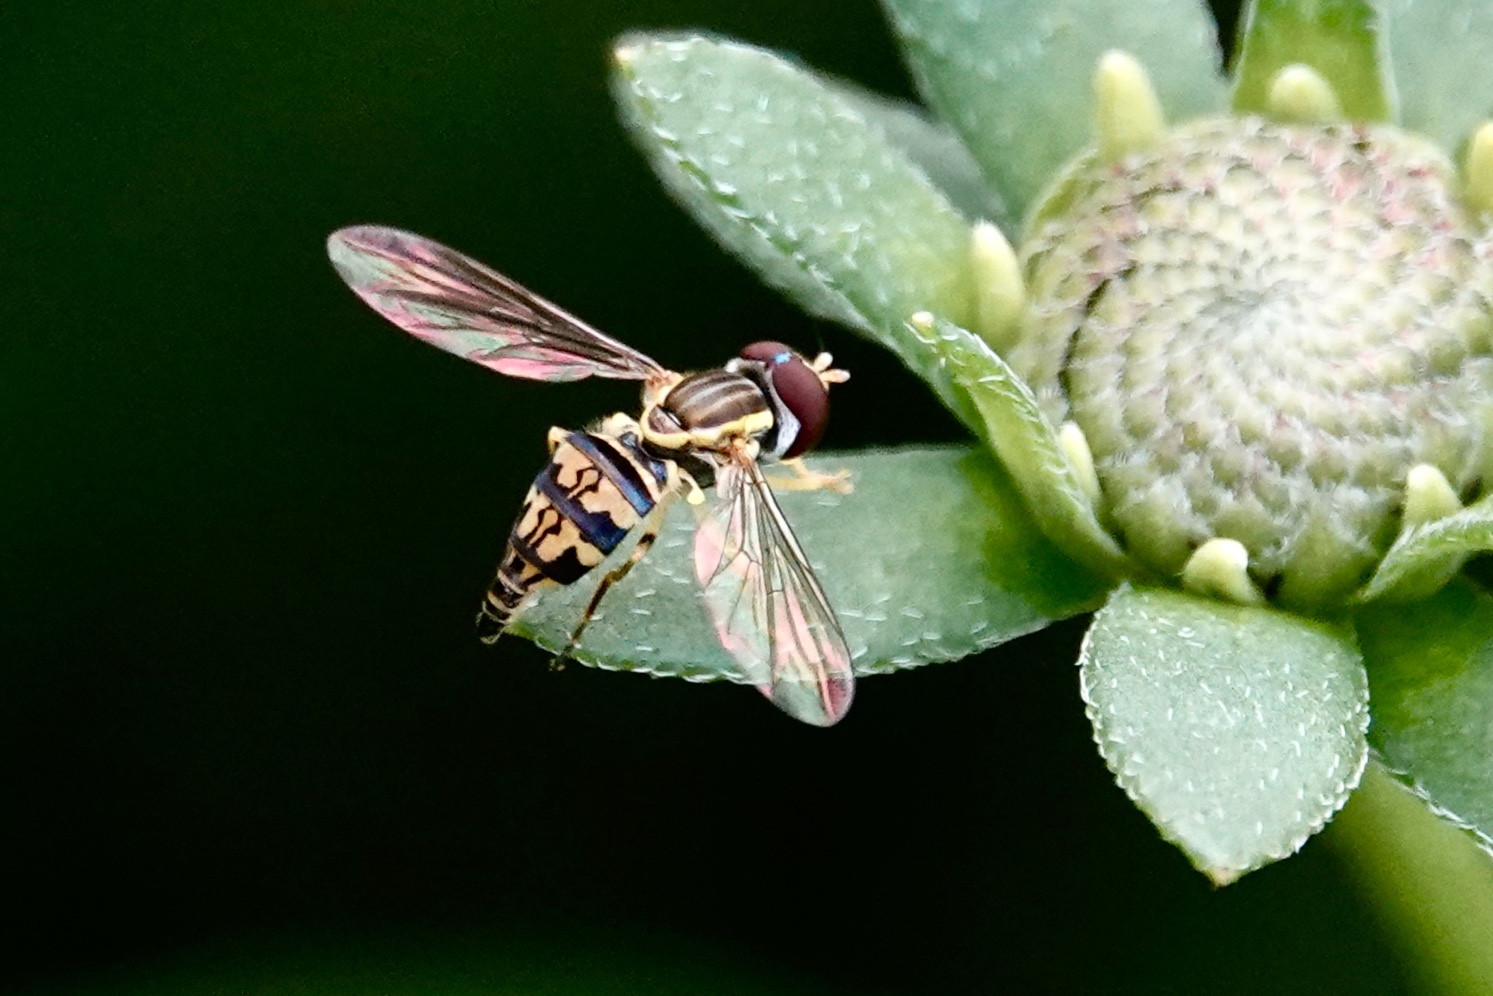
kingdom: Animalia
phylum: Arthropoda
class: Insecta
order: Diptera
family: Syrphidae
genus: Toxomerus
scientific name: Toxomerus geminatus
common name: Eastern calligrapher
